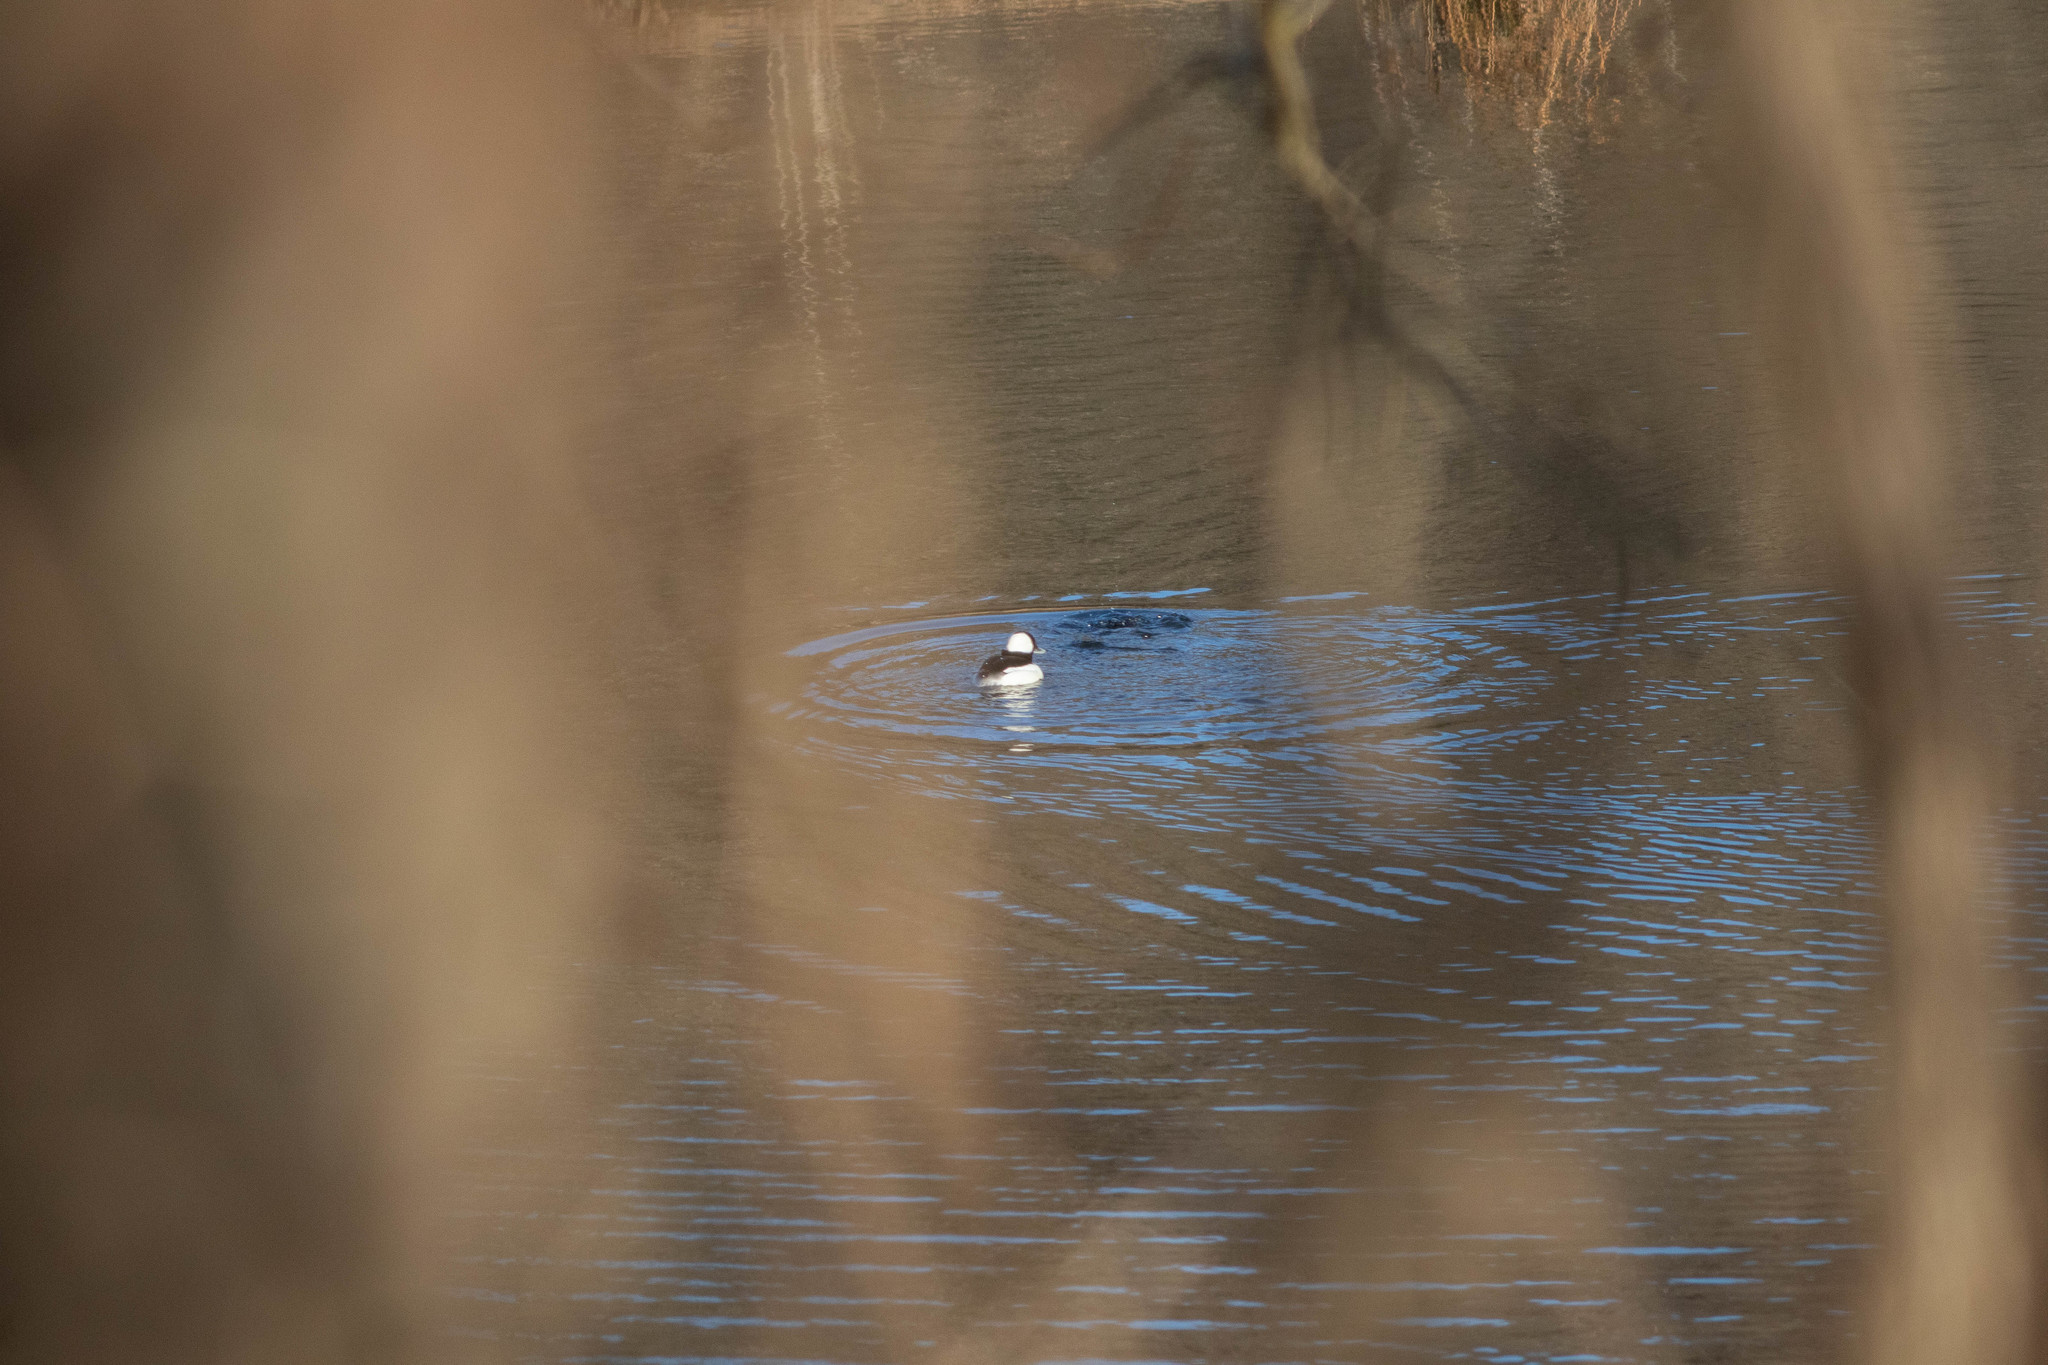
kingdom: Animalia
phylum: Chordata
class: Aves
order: Anseriformes
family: Anatidae
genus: Bucephala
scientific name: Bucephala albeola
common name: Bufflehead
